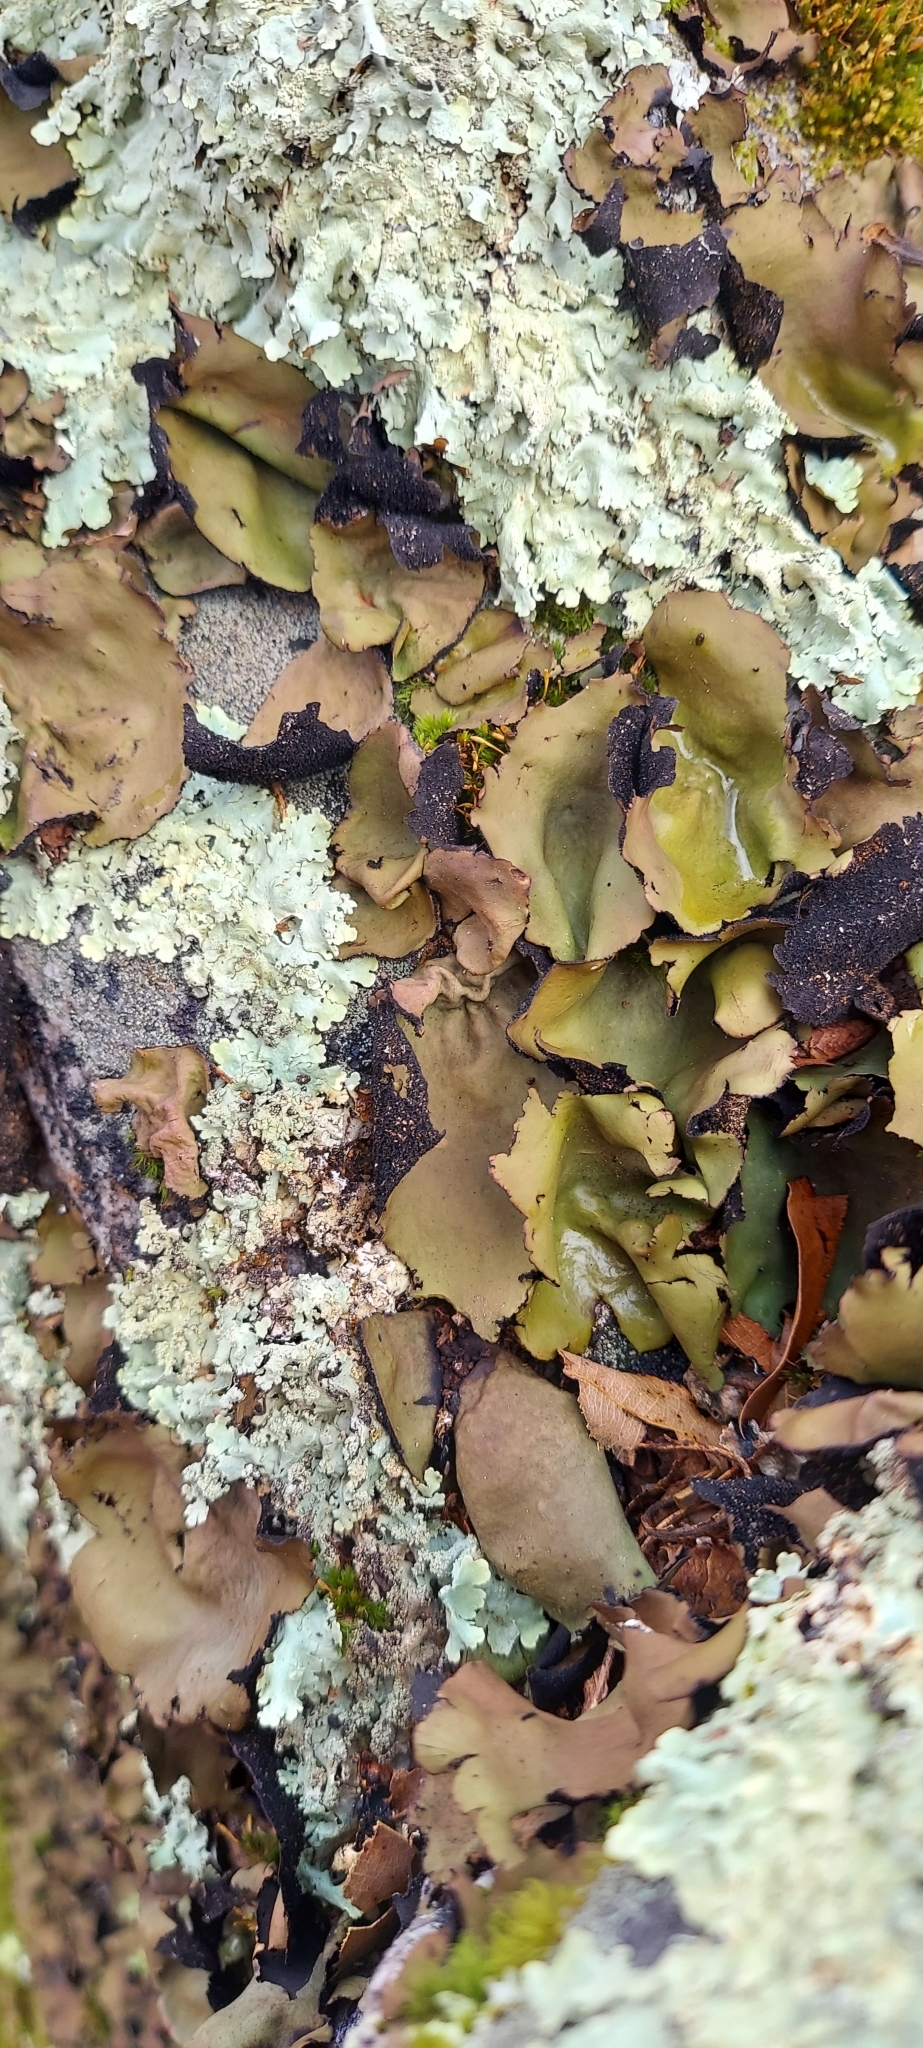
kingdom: Fungi
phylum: Ascomycota
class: Lecanoromycetes
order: Umbilicariales
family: Umbilicariaceae
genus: Umbilicaria
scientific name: Umbilicaria mammulata
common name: Smooth rock tripe
